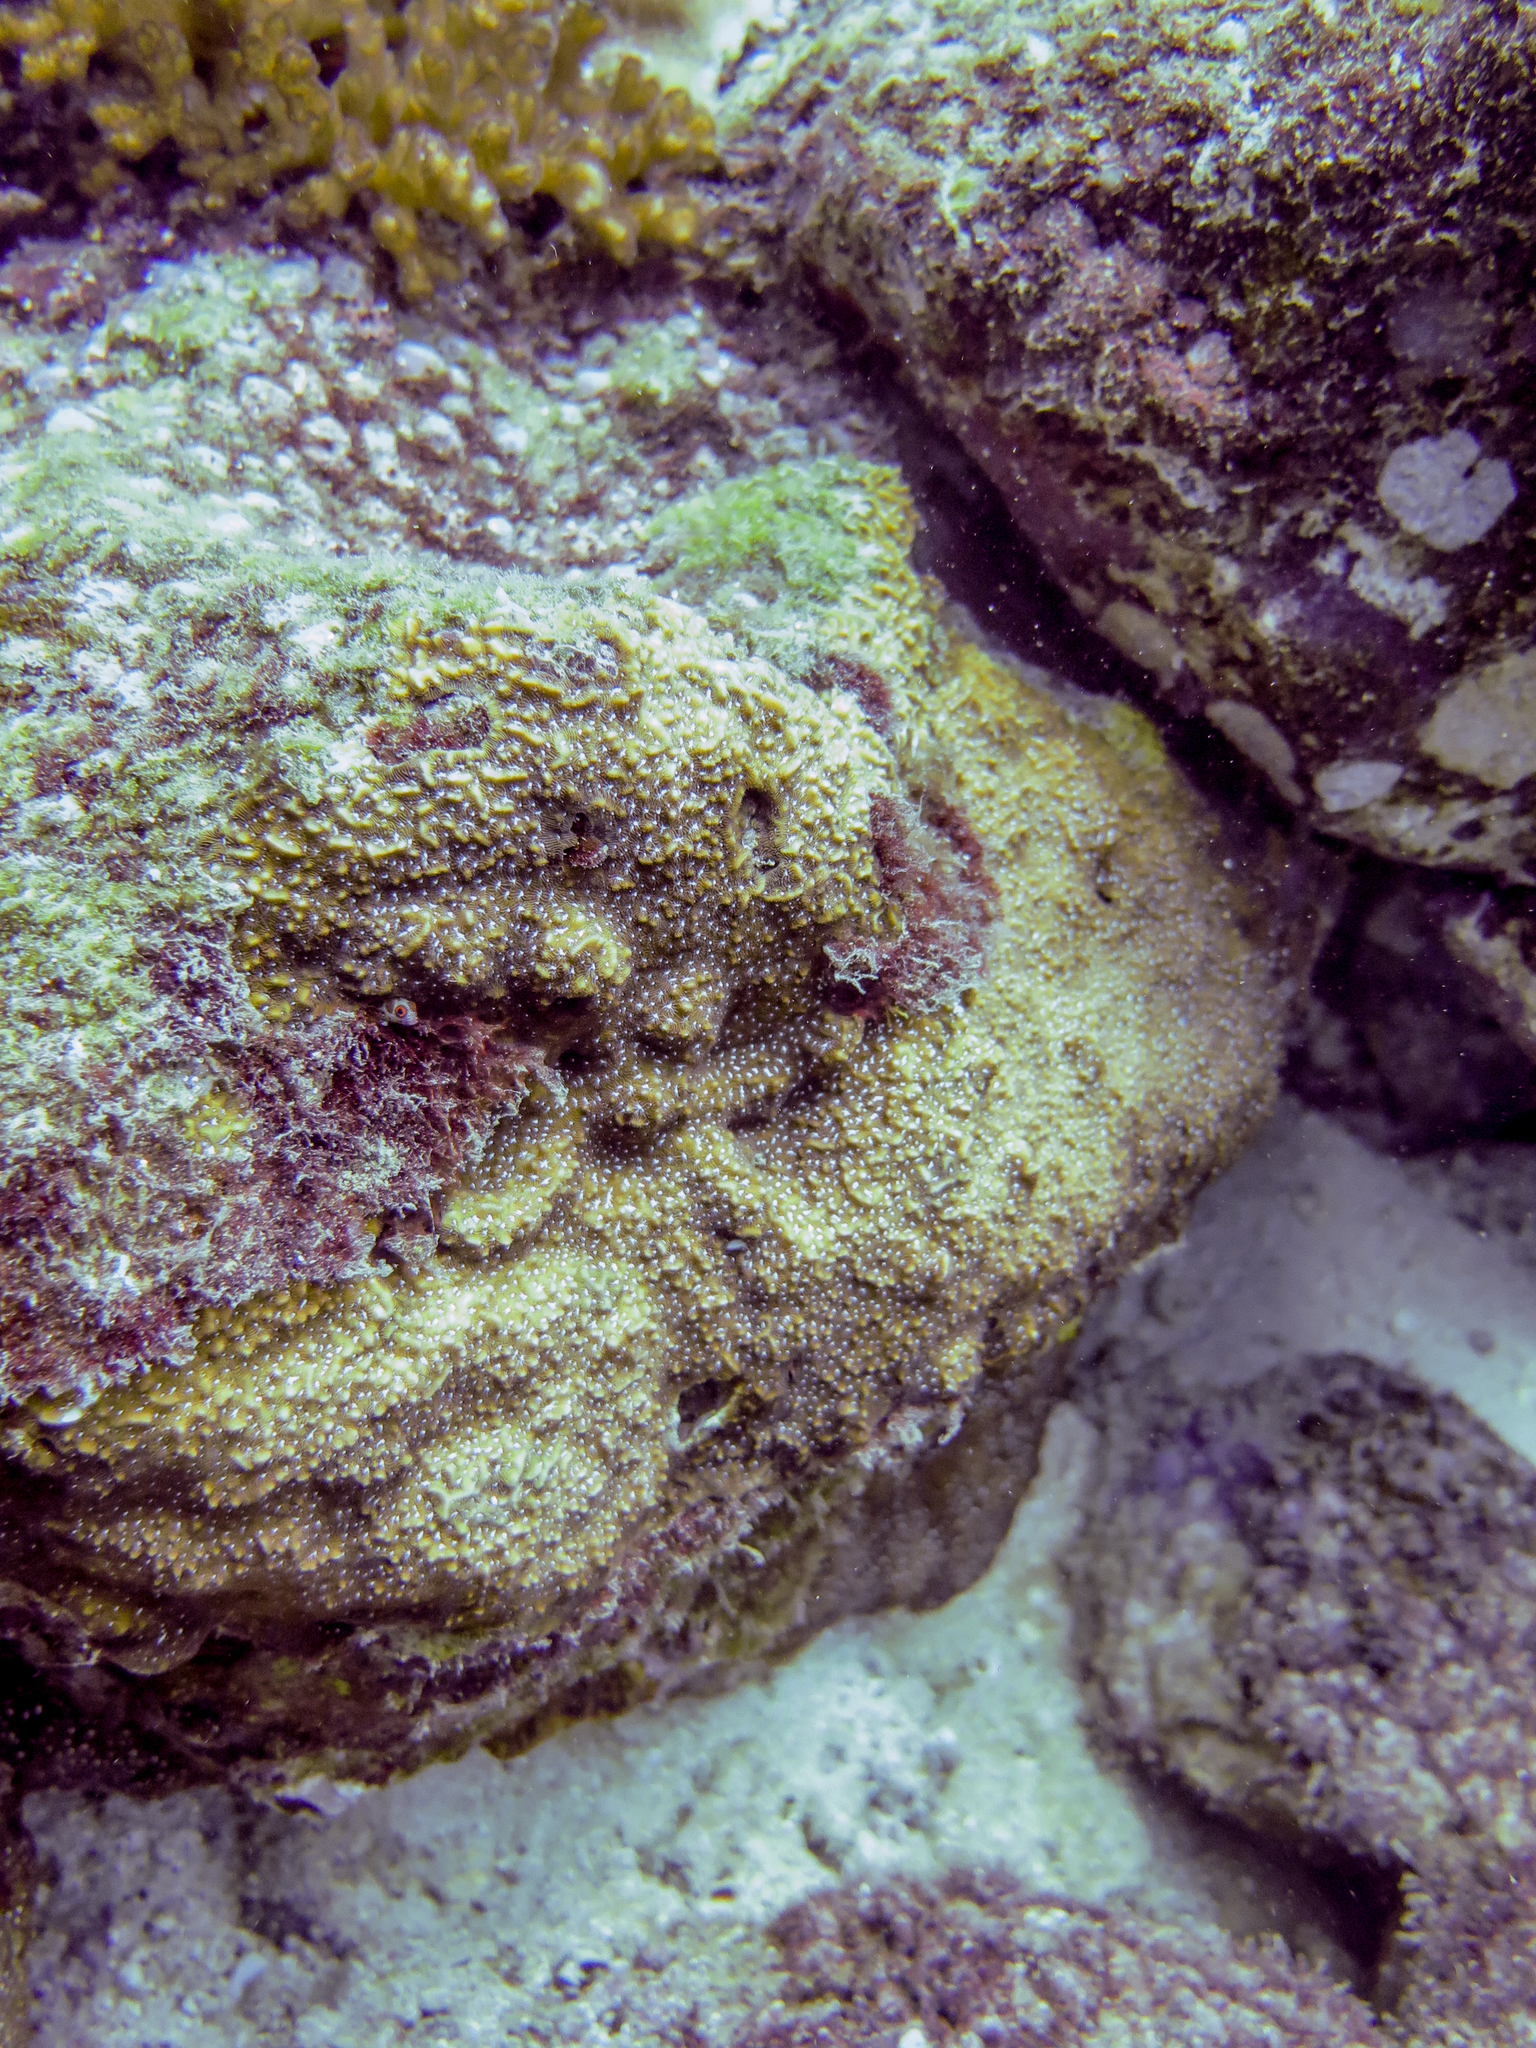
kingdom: Animalia
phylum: Cnidaria
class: Anthozoa
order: Scleractinia
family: Agariciidae
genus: Pavona
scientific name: Pavona chiriquiensis
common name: Leaf coral
